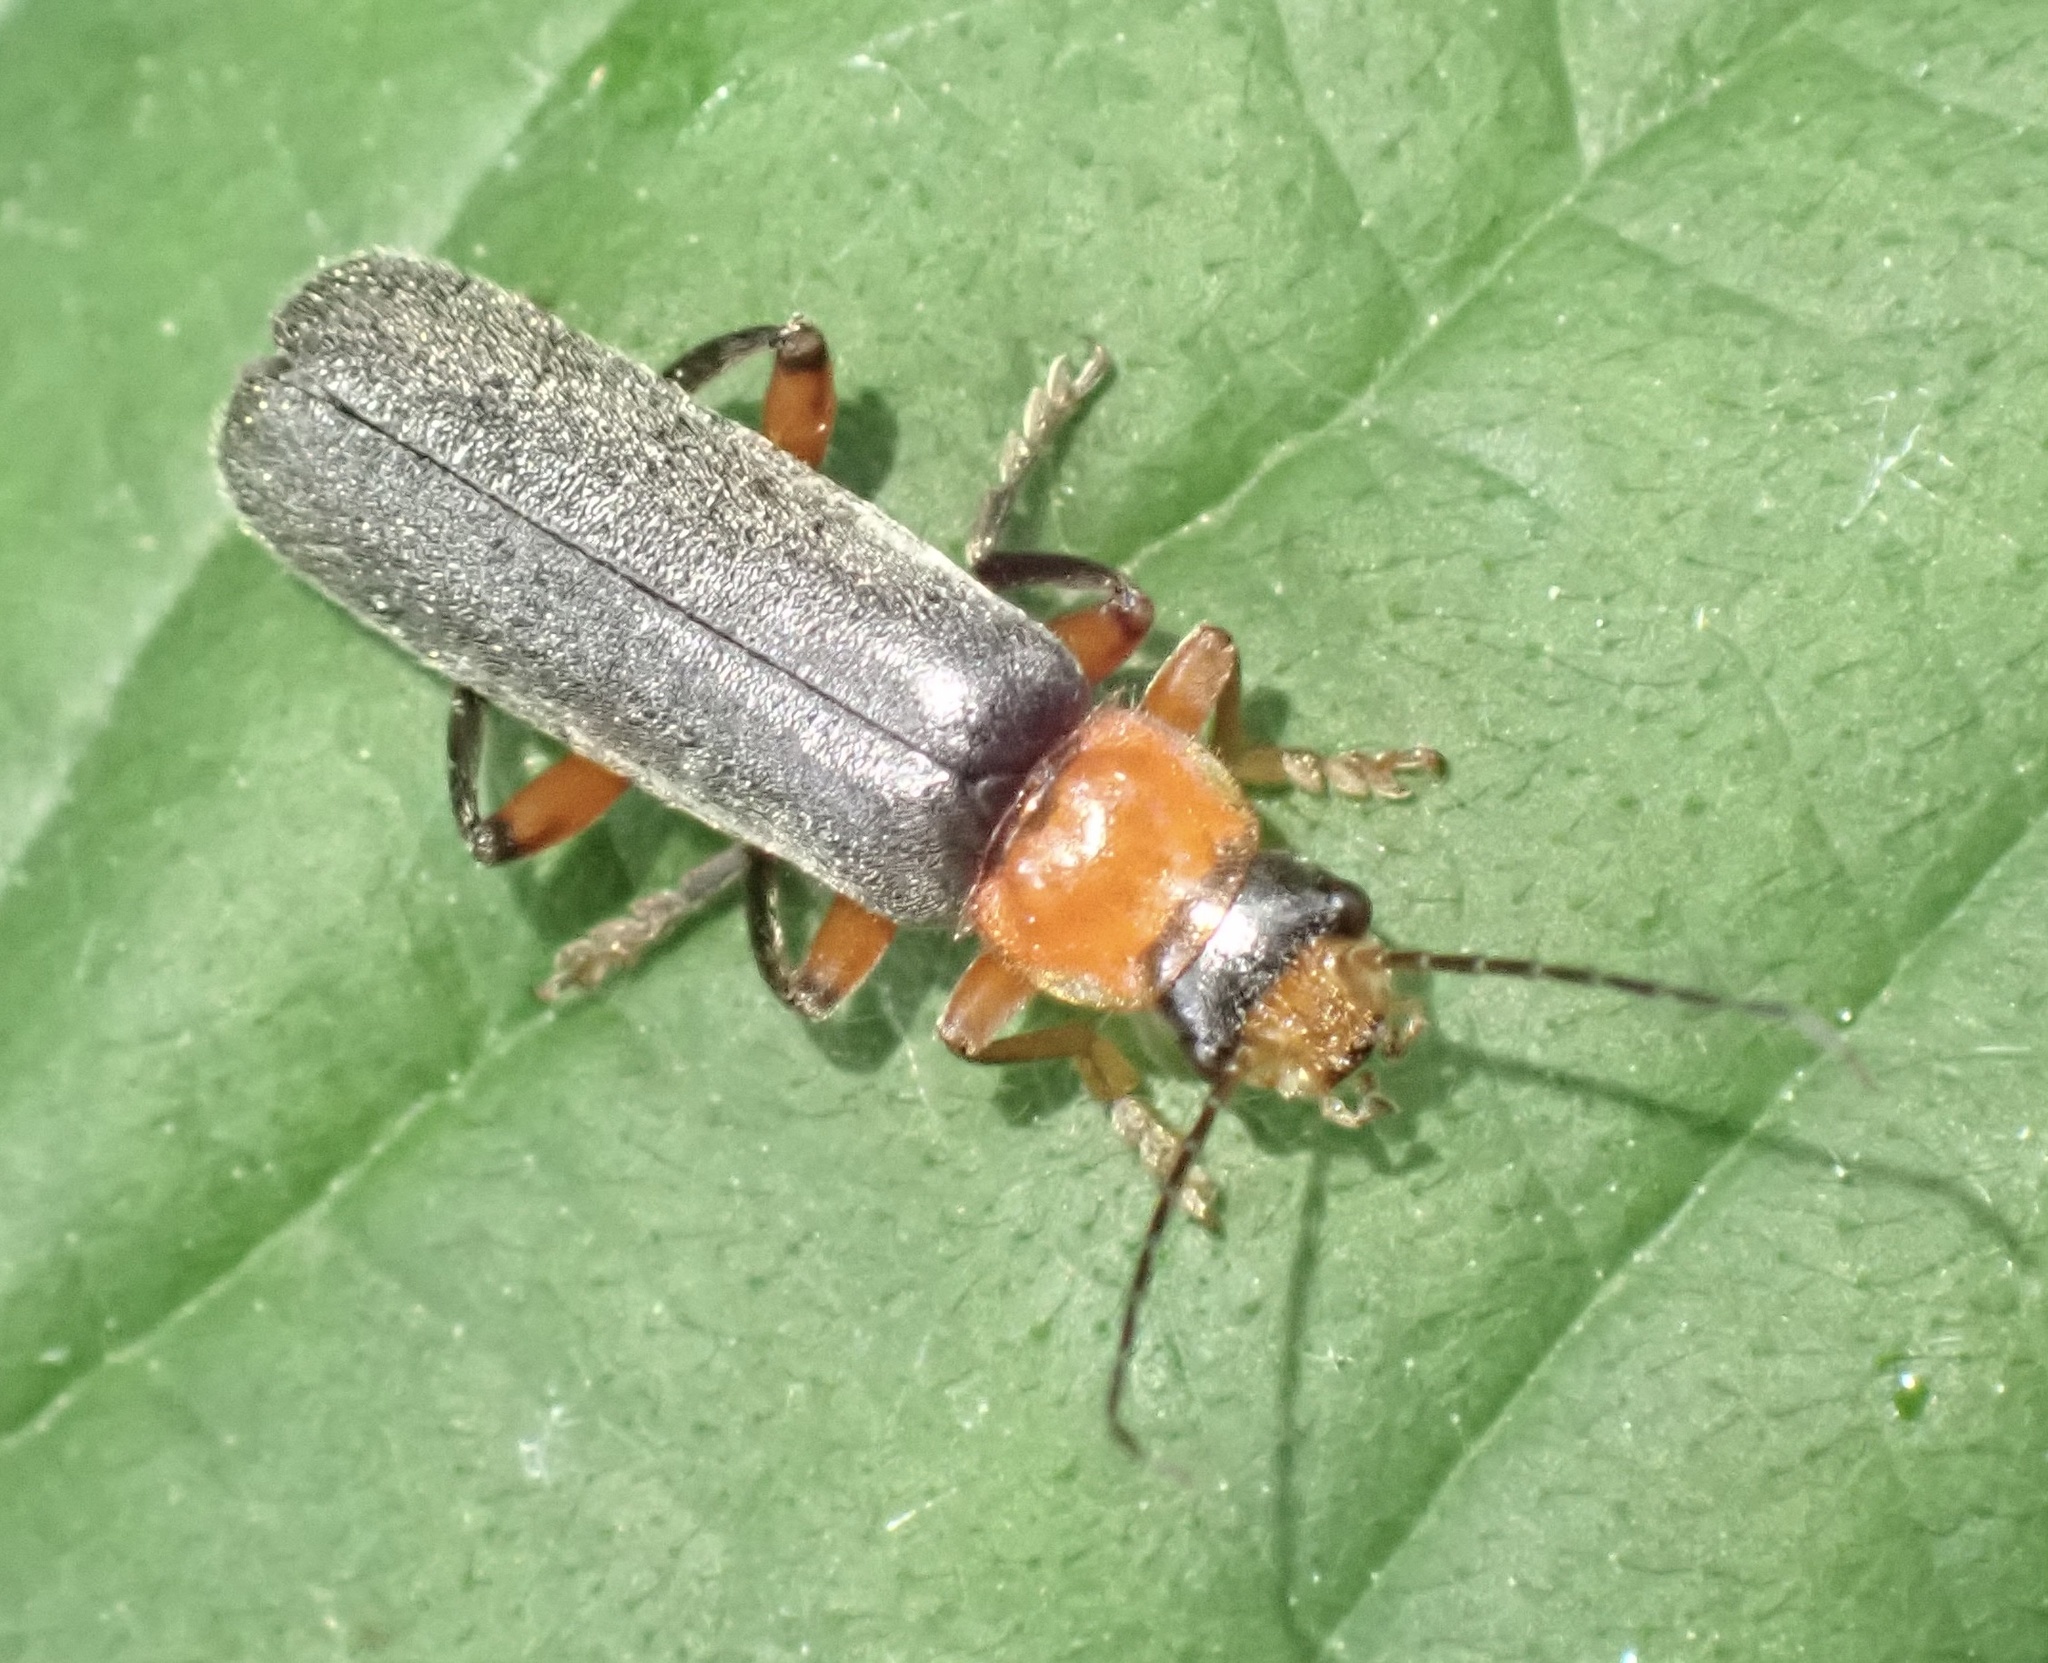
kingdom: Animalia
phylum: Arthropoda
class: Insecta
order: Coleoptera
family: Cantharidae
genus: Cantharis
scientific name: Cantharis pellucida
